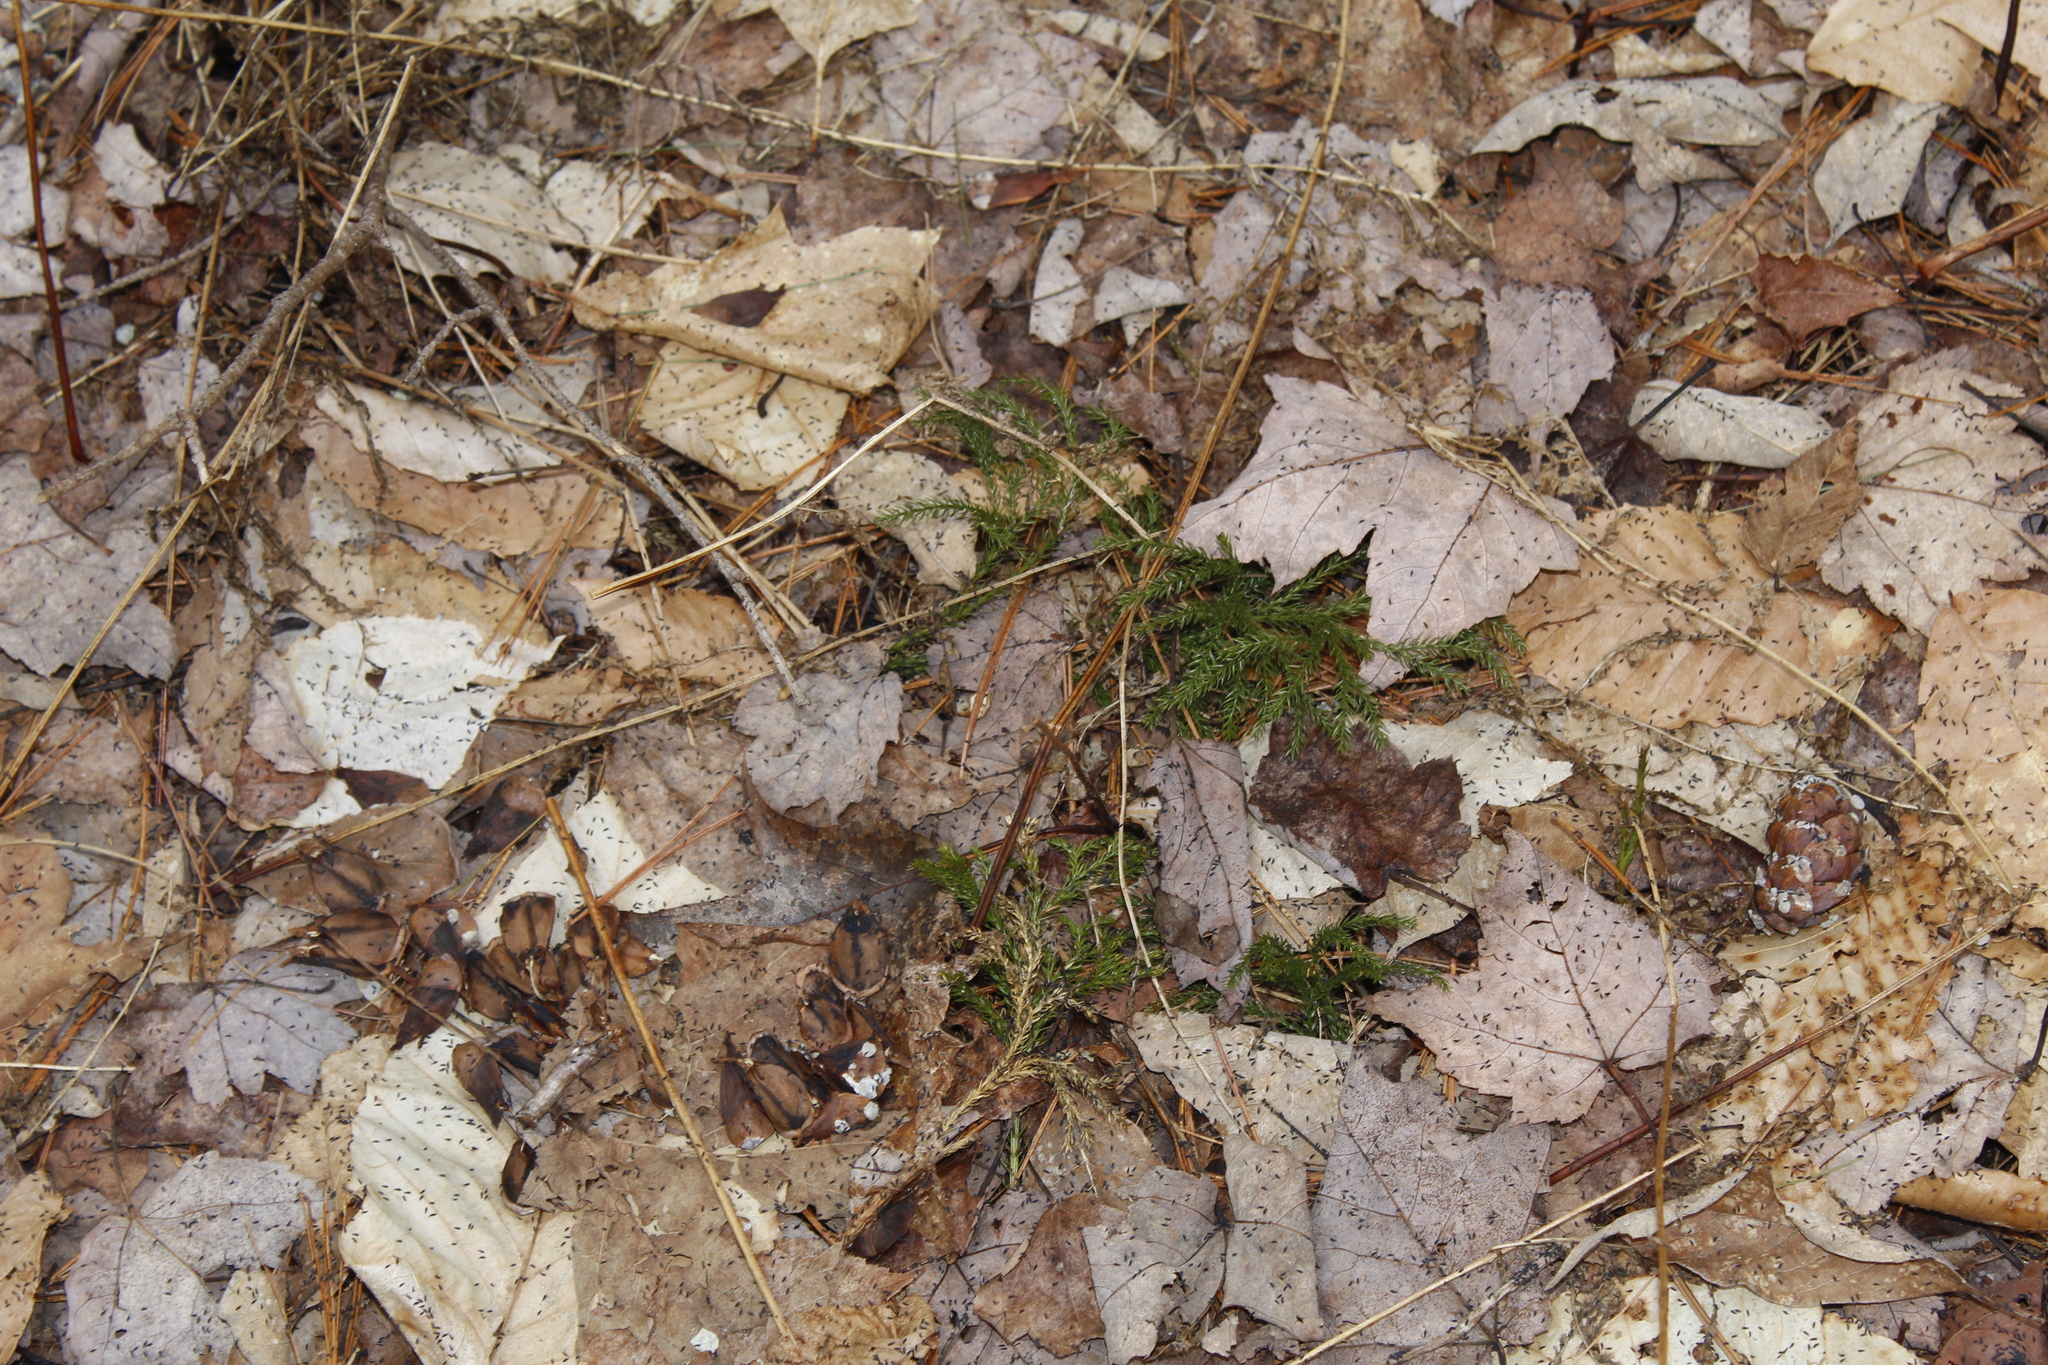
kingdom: Plantae
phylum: Tracheophyta
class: Lycopodiopsida
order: Lycopodiales
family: Lycopodiaceae
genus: Dendrolycopodium
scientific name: Dendrolycopodium obscurum
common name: Common ground-pine
